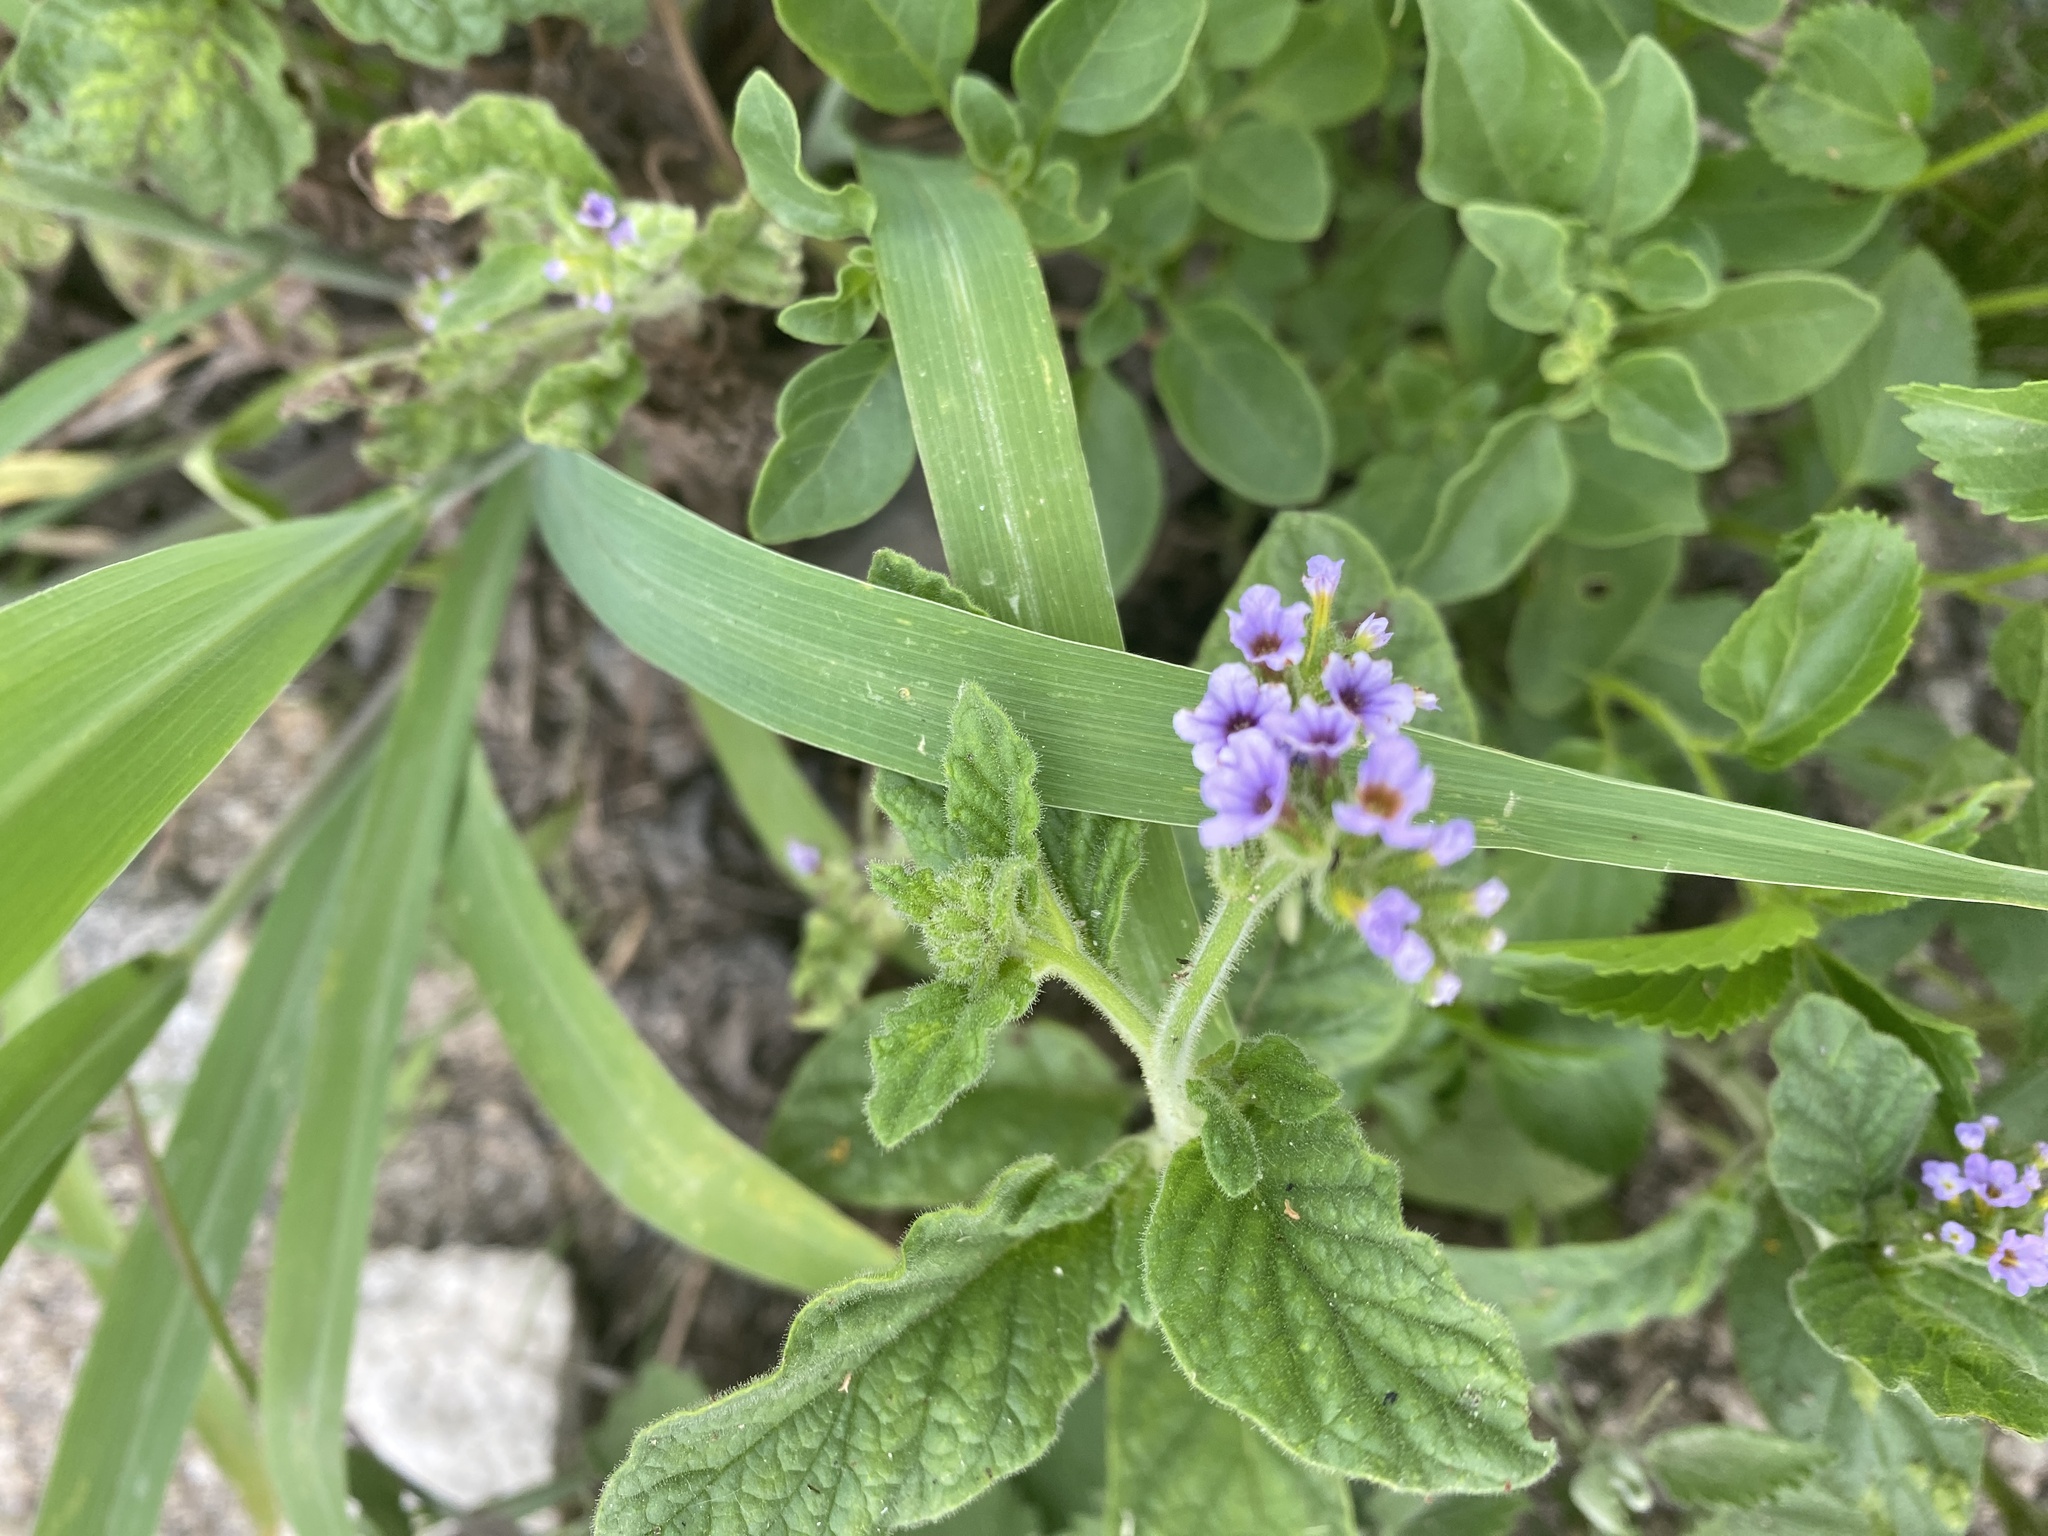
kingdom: Plantae
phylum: Tracheophyta
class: Magnoliopsida
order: Boraginales
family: Heliotropiaceae
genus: Heliotropium
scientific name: Heliotropium amplexicaule
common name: Clasping heliotrope
